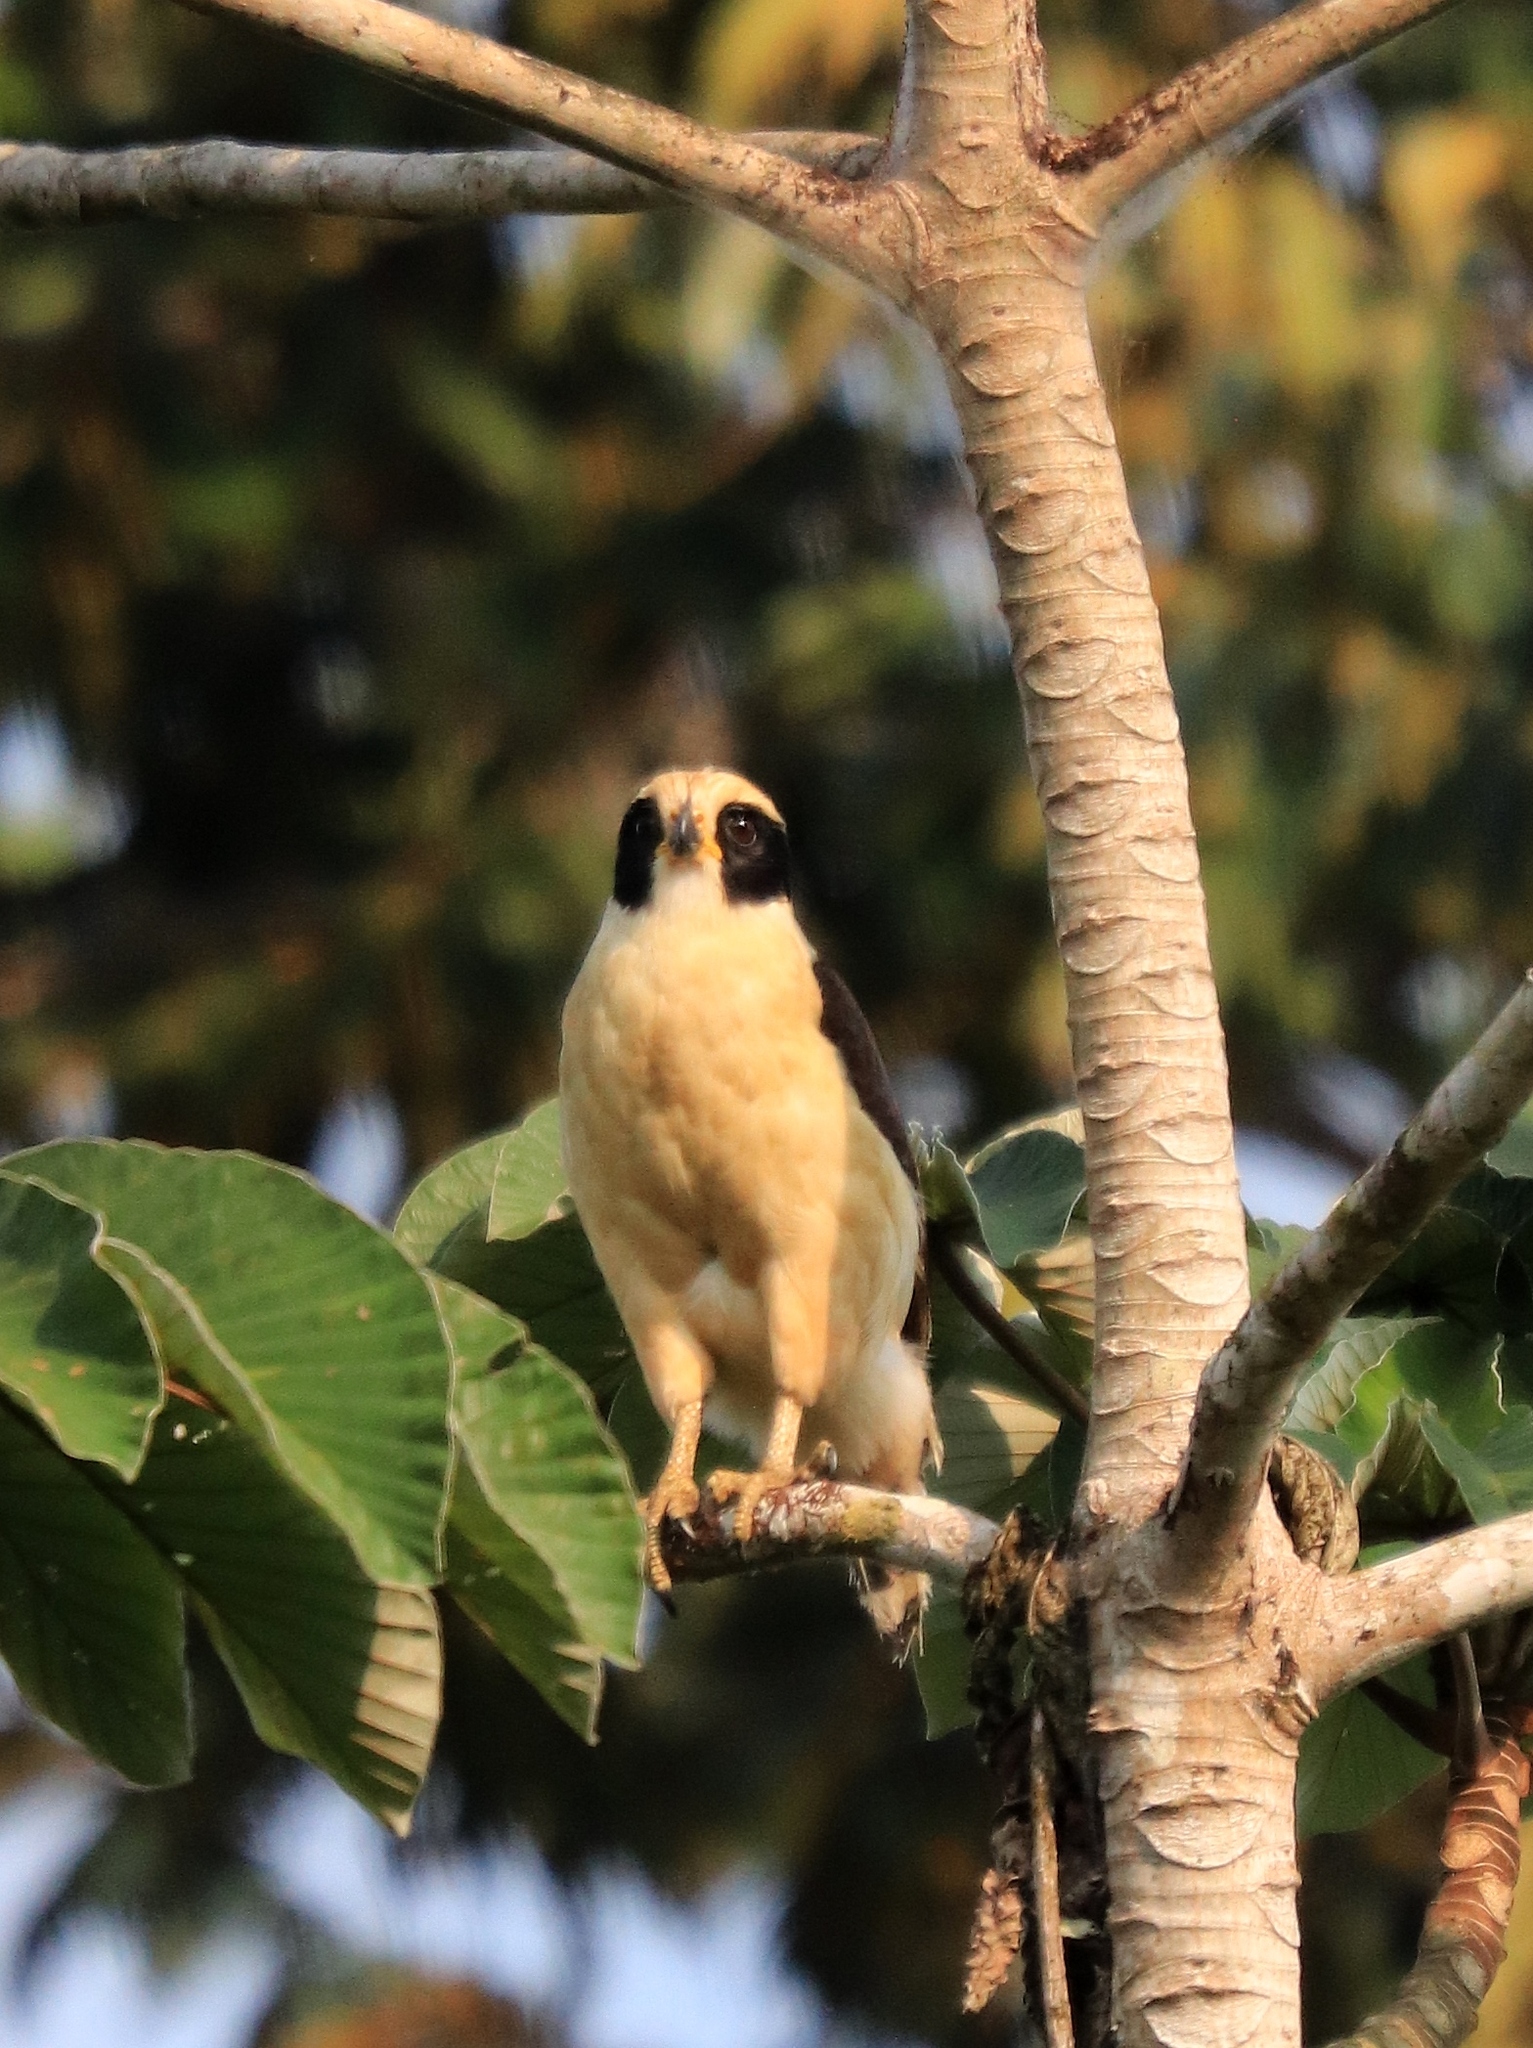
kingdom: Animalia
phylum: Chordata
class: Aves
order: Falconiformes
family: Falconidae
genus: Herpetotheres
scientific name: Herpetotheres cachinnans
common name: Laughing falcon
